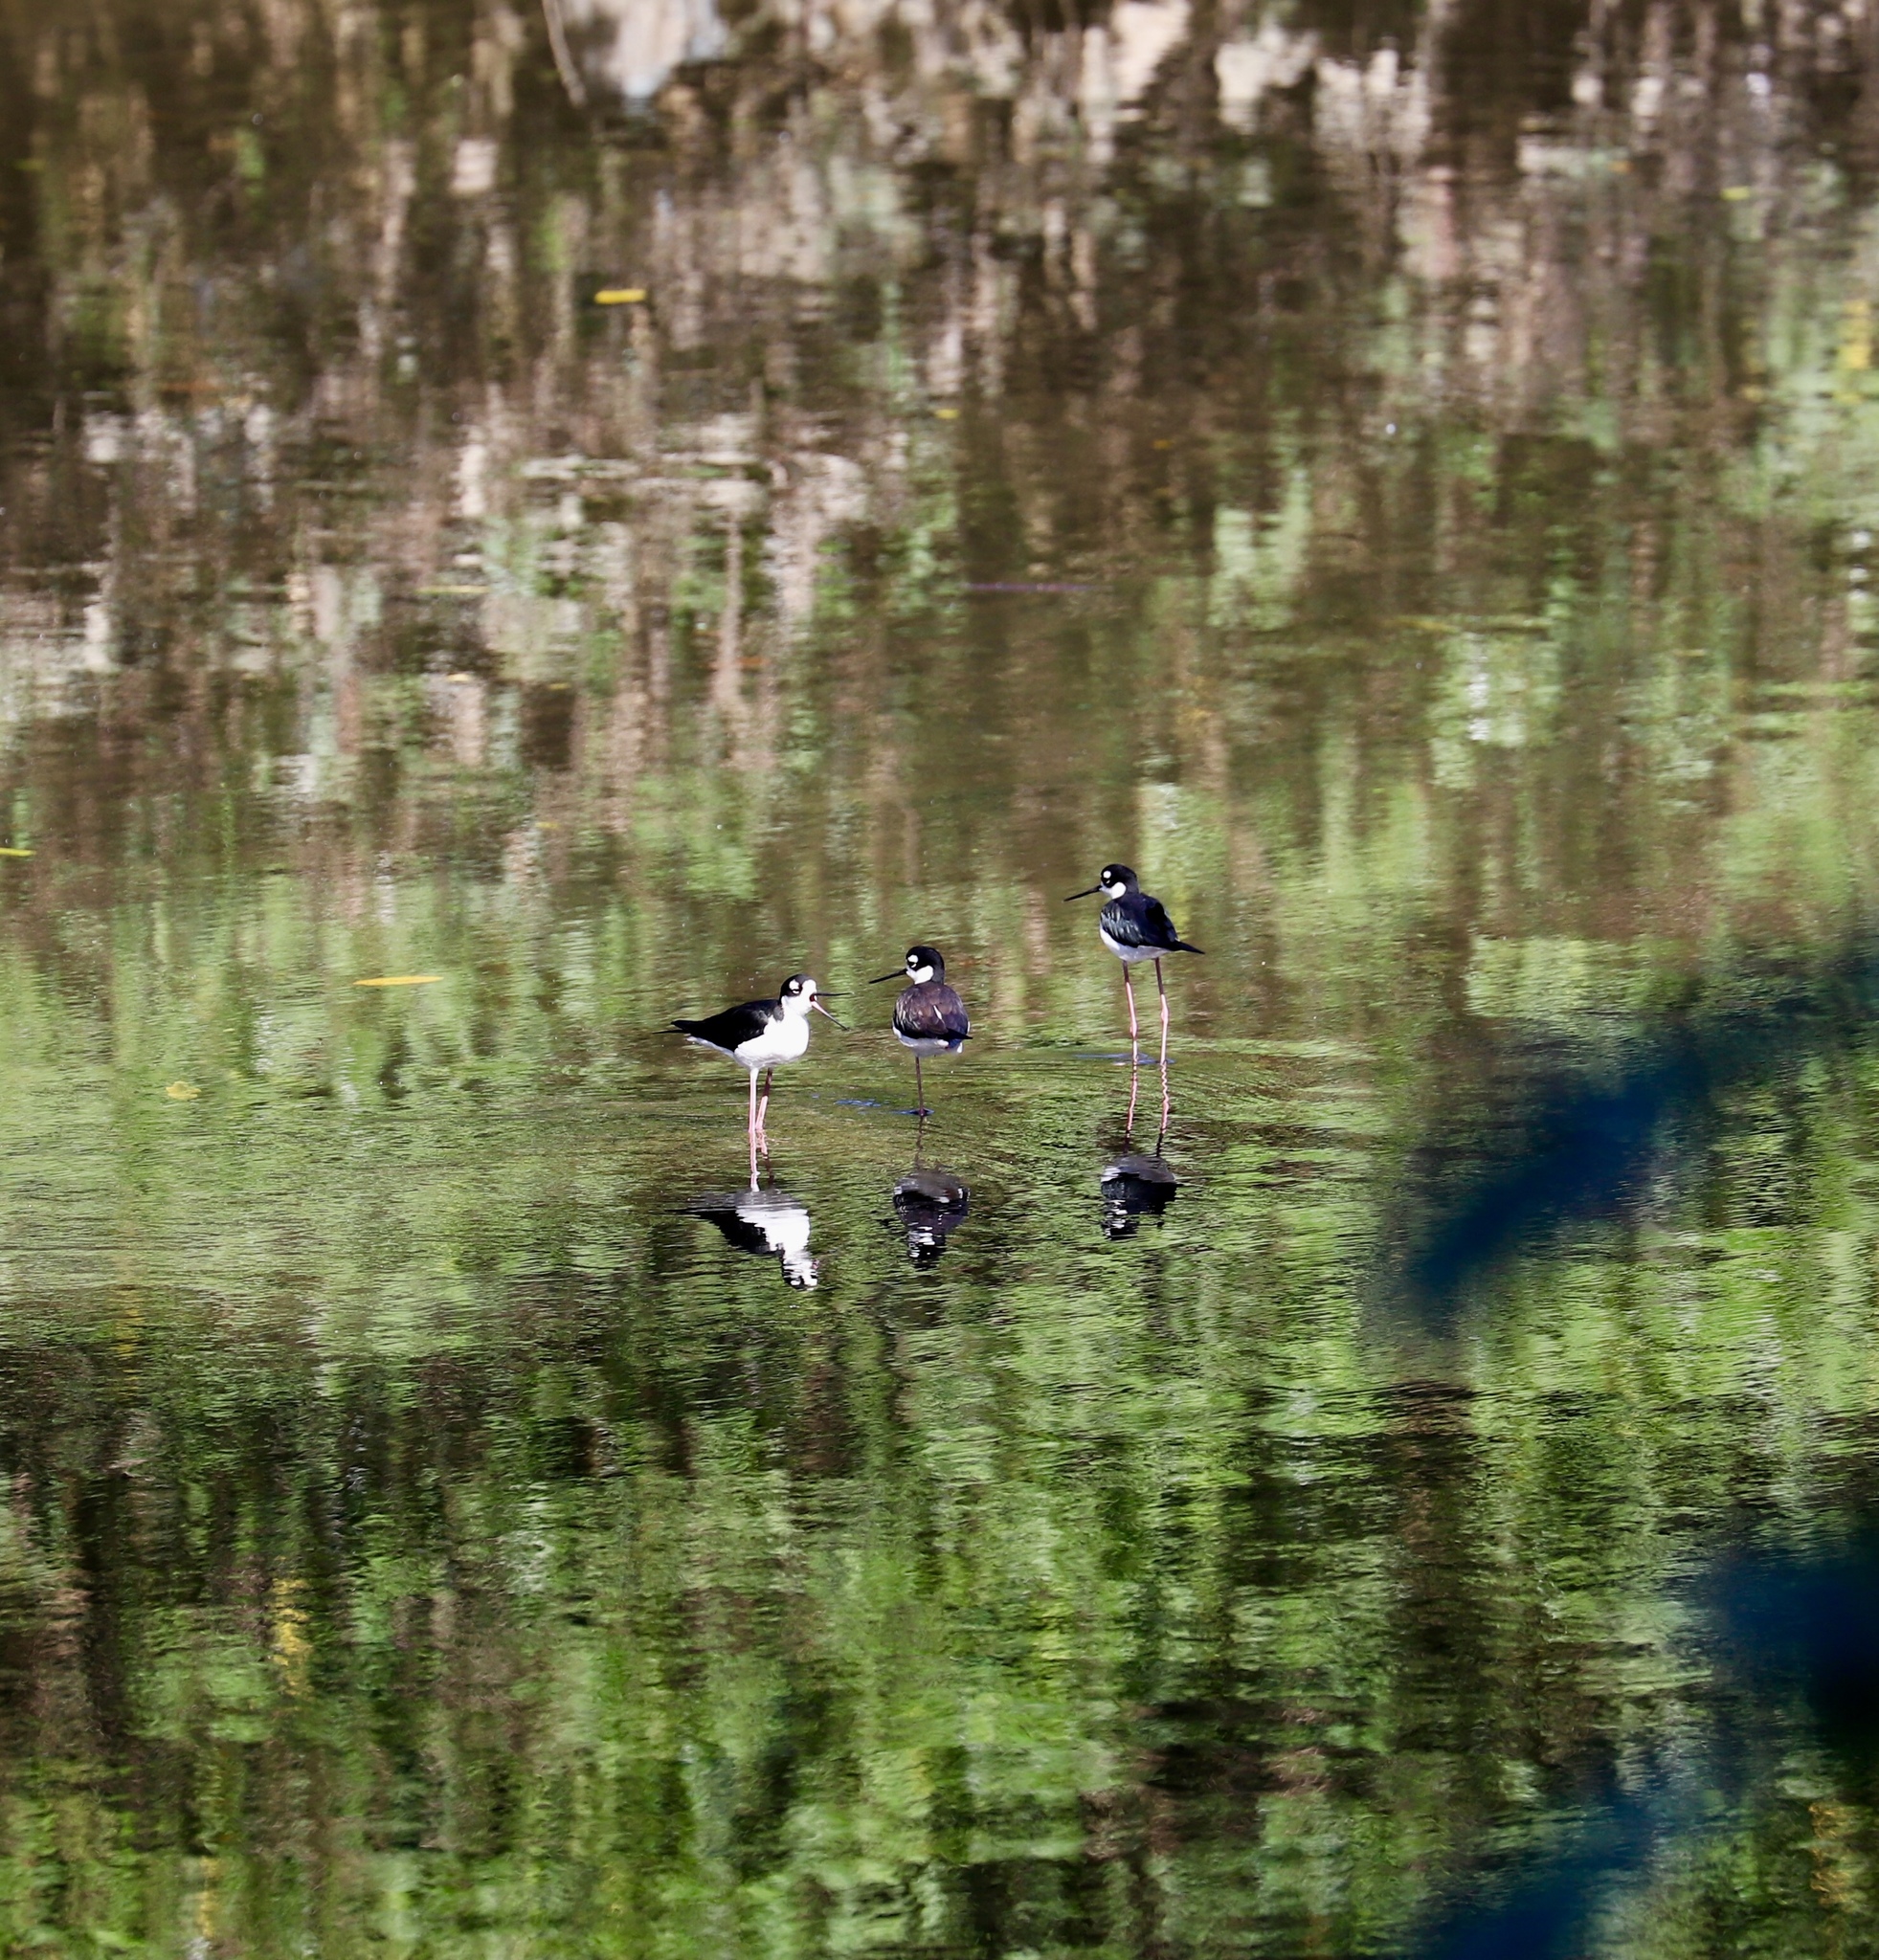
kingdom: Animalia
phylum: Chordata
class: Aves
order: Charadriiformes
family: Recurvirostridae
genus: Himantopus
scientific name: Himantopus mexicanus
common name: Black-necked stilt
